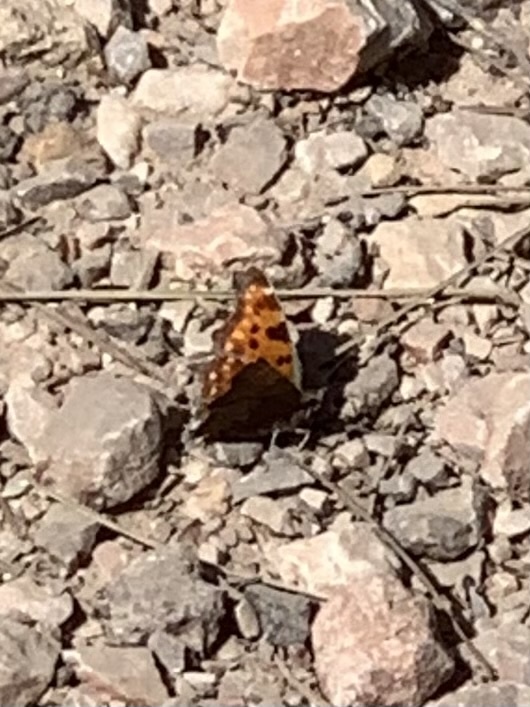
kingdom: Animalia
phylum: Arthropoda
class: Insecta
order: Lepidoptera
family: Nymphalidae
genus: Polygonia
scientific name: Polygonia c-album
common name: Comma
